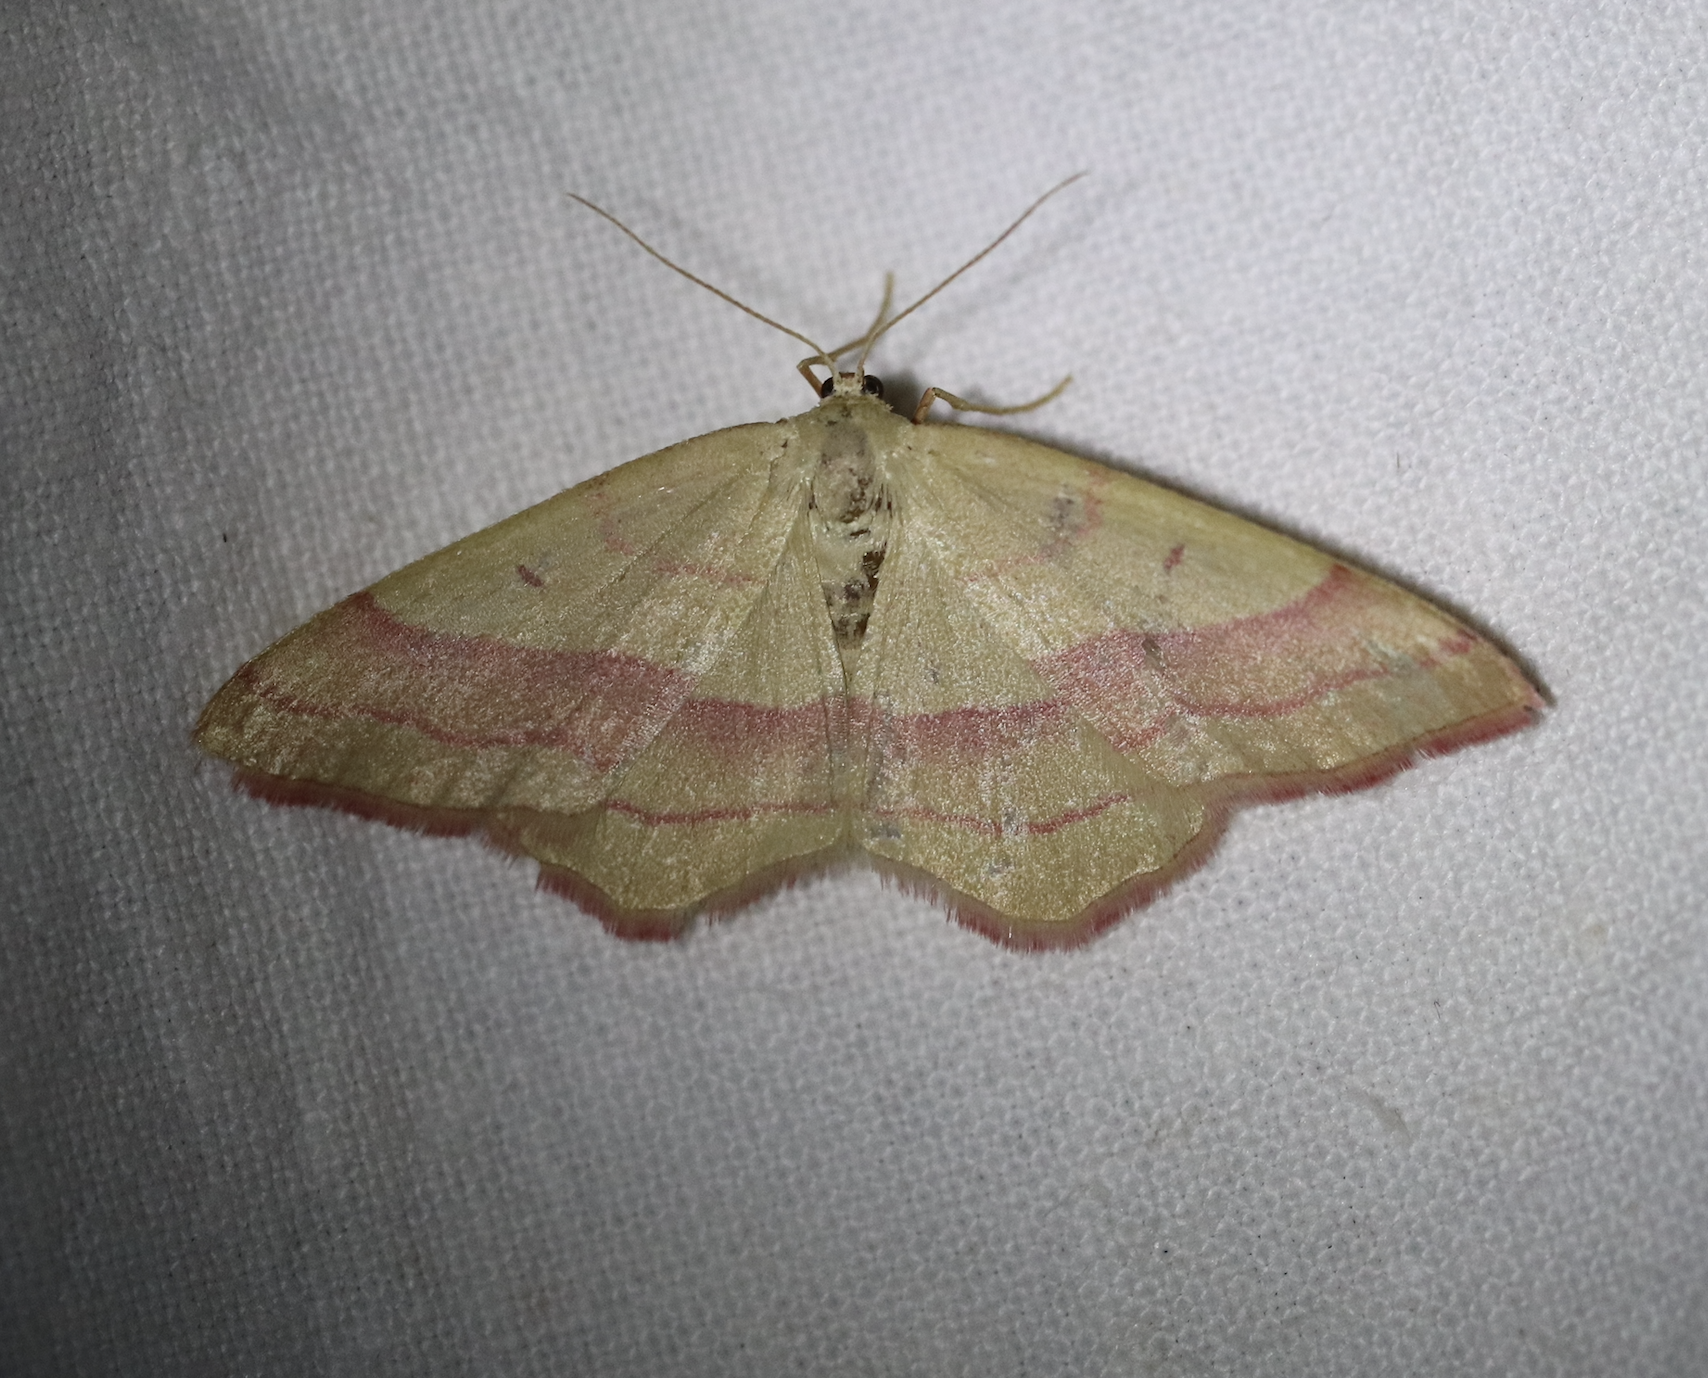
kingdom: Animalia
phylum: Arthropoda
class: Insecta
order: Lepidoptera
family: Geometridae
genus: Rhodostrophia
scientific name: Rhodostrophia vibicaria
